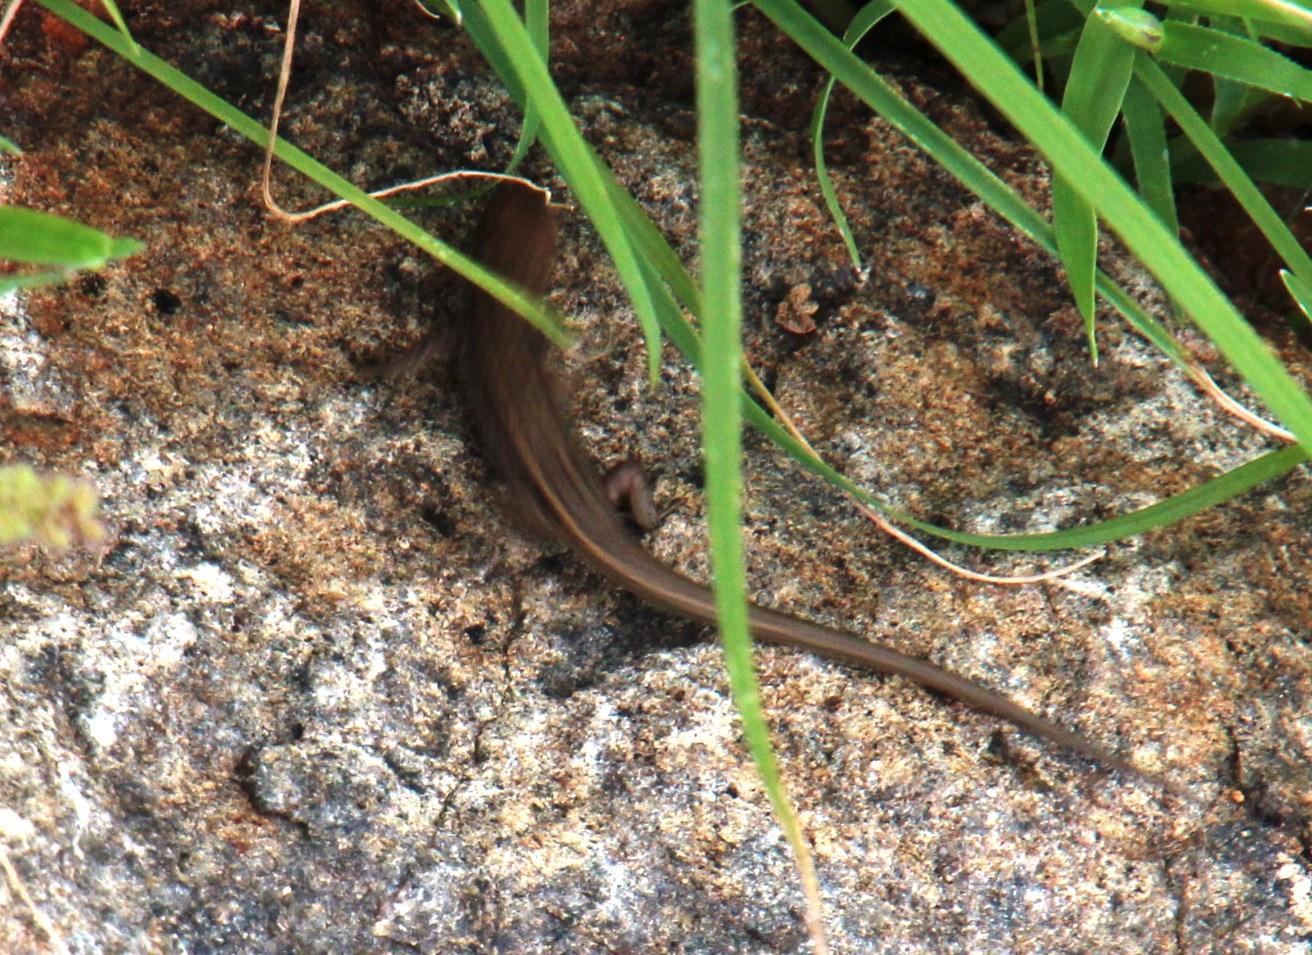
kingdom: Animalia
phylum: Chordata
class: Squamata
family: Scincidae
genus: Trachylepis
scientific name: Trachylepis capensis
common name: Cape skink
